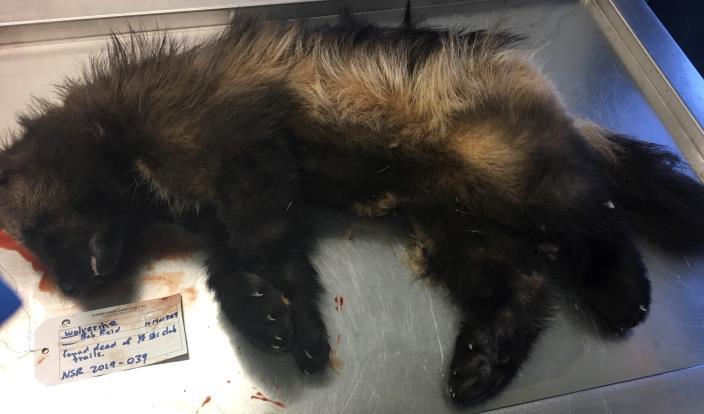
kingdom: Animalia
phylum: Chordata
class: Mammalia
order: Carnivora
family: Mustelidae
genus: Gulo
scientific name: Gulo gulo
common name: Wolverine
